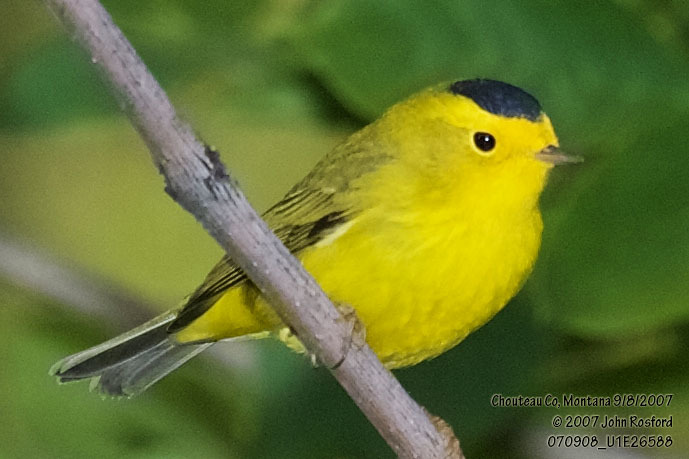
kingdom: Animalia
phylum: Chordata
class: Aves
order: Passeriformes
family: Parulidae
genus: Cardellina
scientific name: Cardellina pusilla
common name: Wilson's warbler
